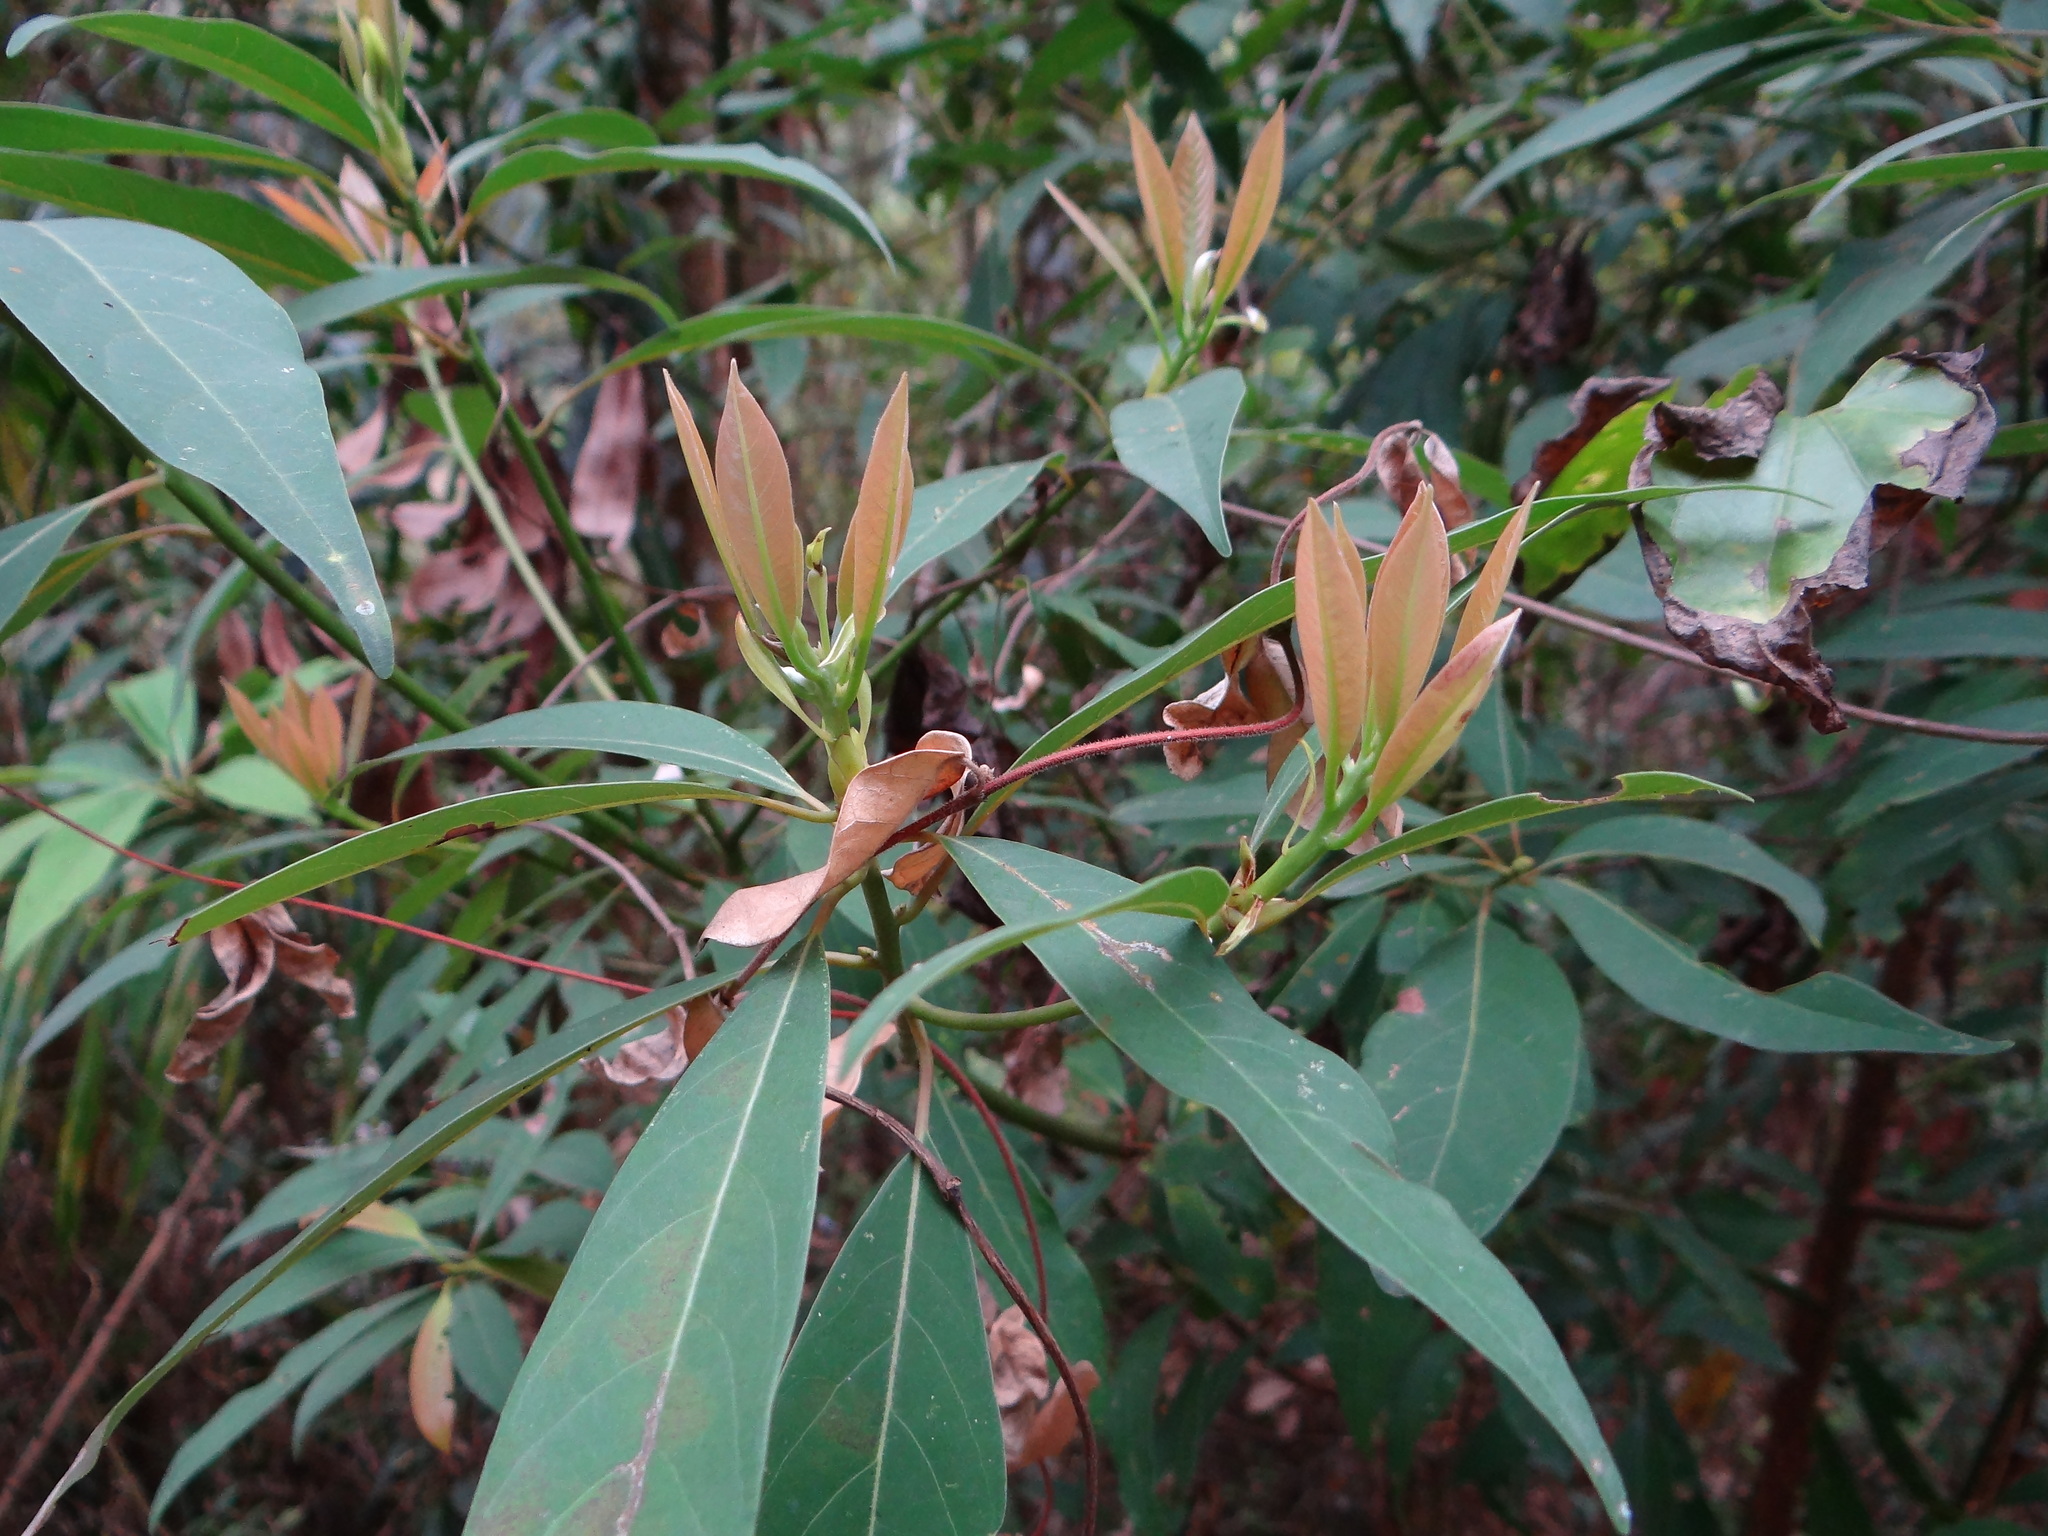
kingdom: Animalia
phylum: Arthropoda
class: Insecta
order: Diptera
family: Cecidomyiidae
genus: Daphnephila
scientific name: Daphnephila urnicola
